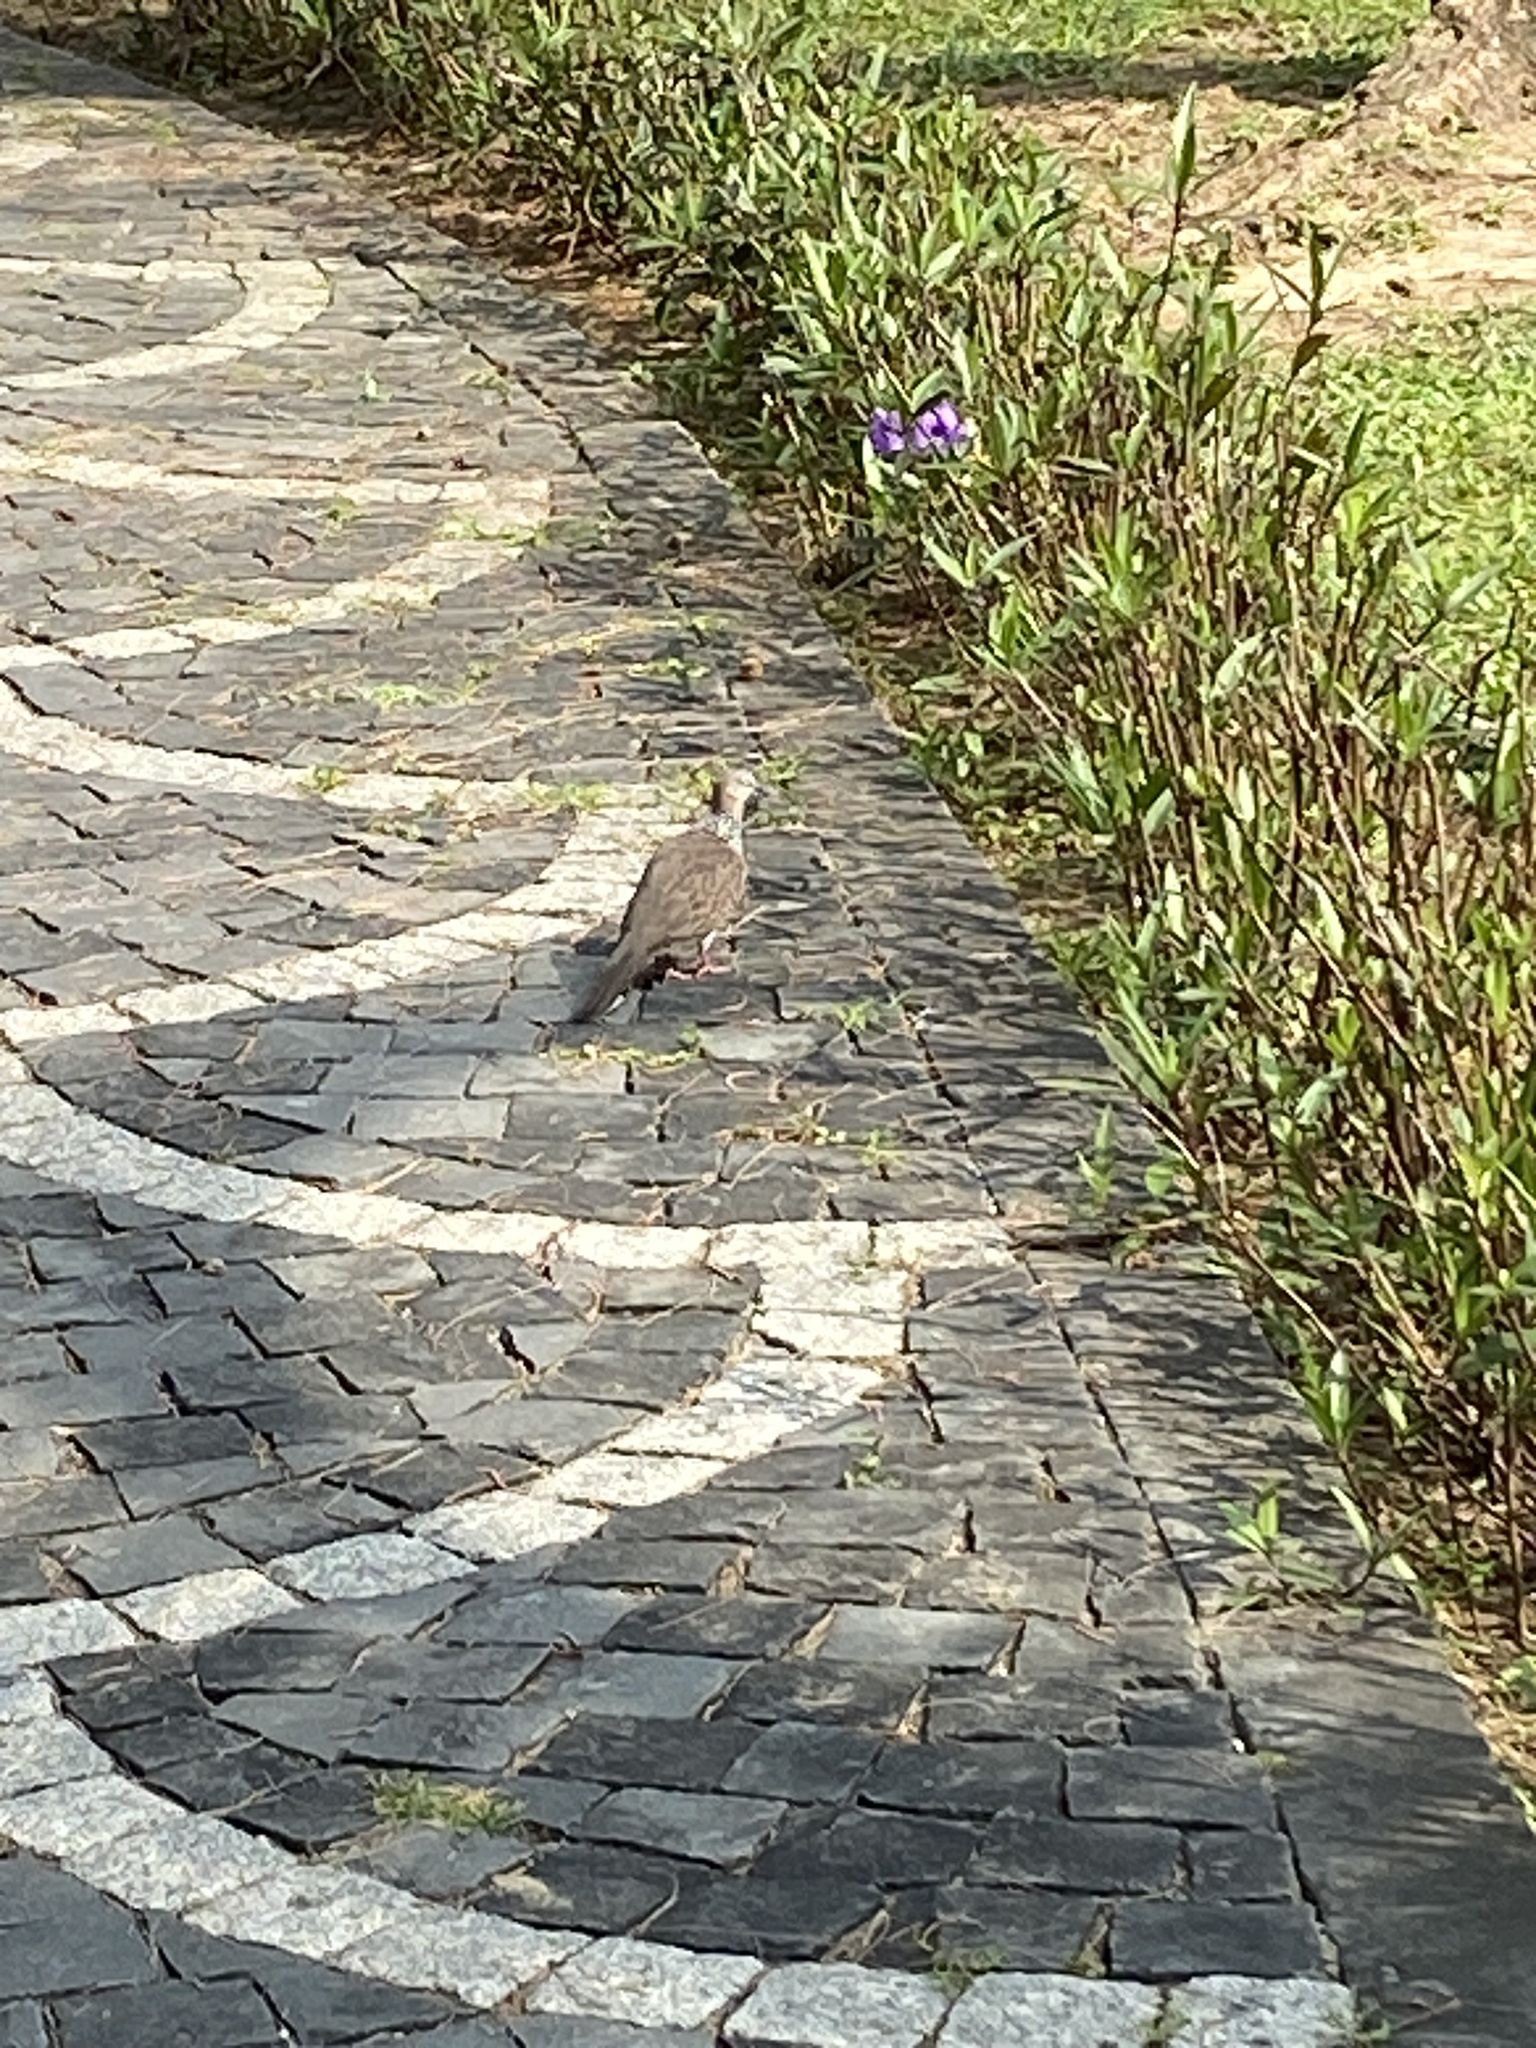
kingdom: Animalia
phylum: Chordata
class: Aves
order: Columbiformes
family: Columbidae
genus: Spilopelia
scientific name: Spilopelia chinensis
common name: Spotted dove
